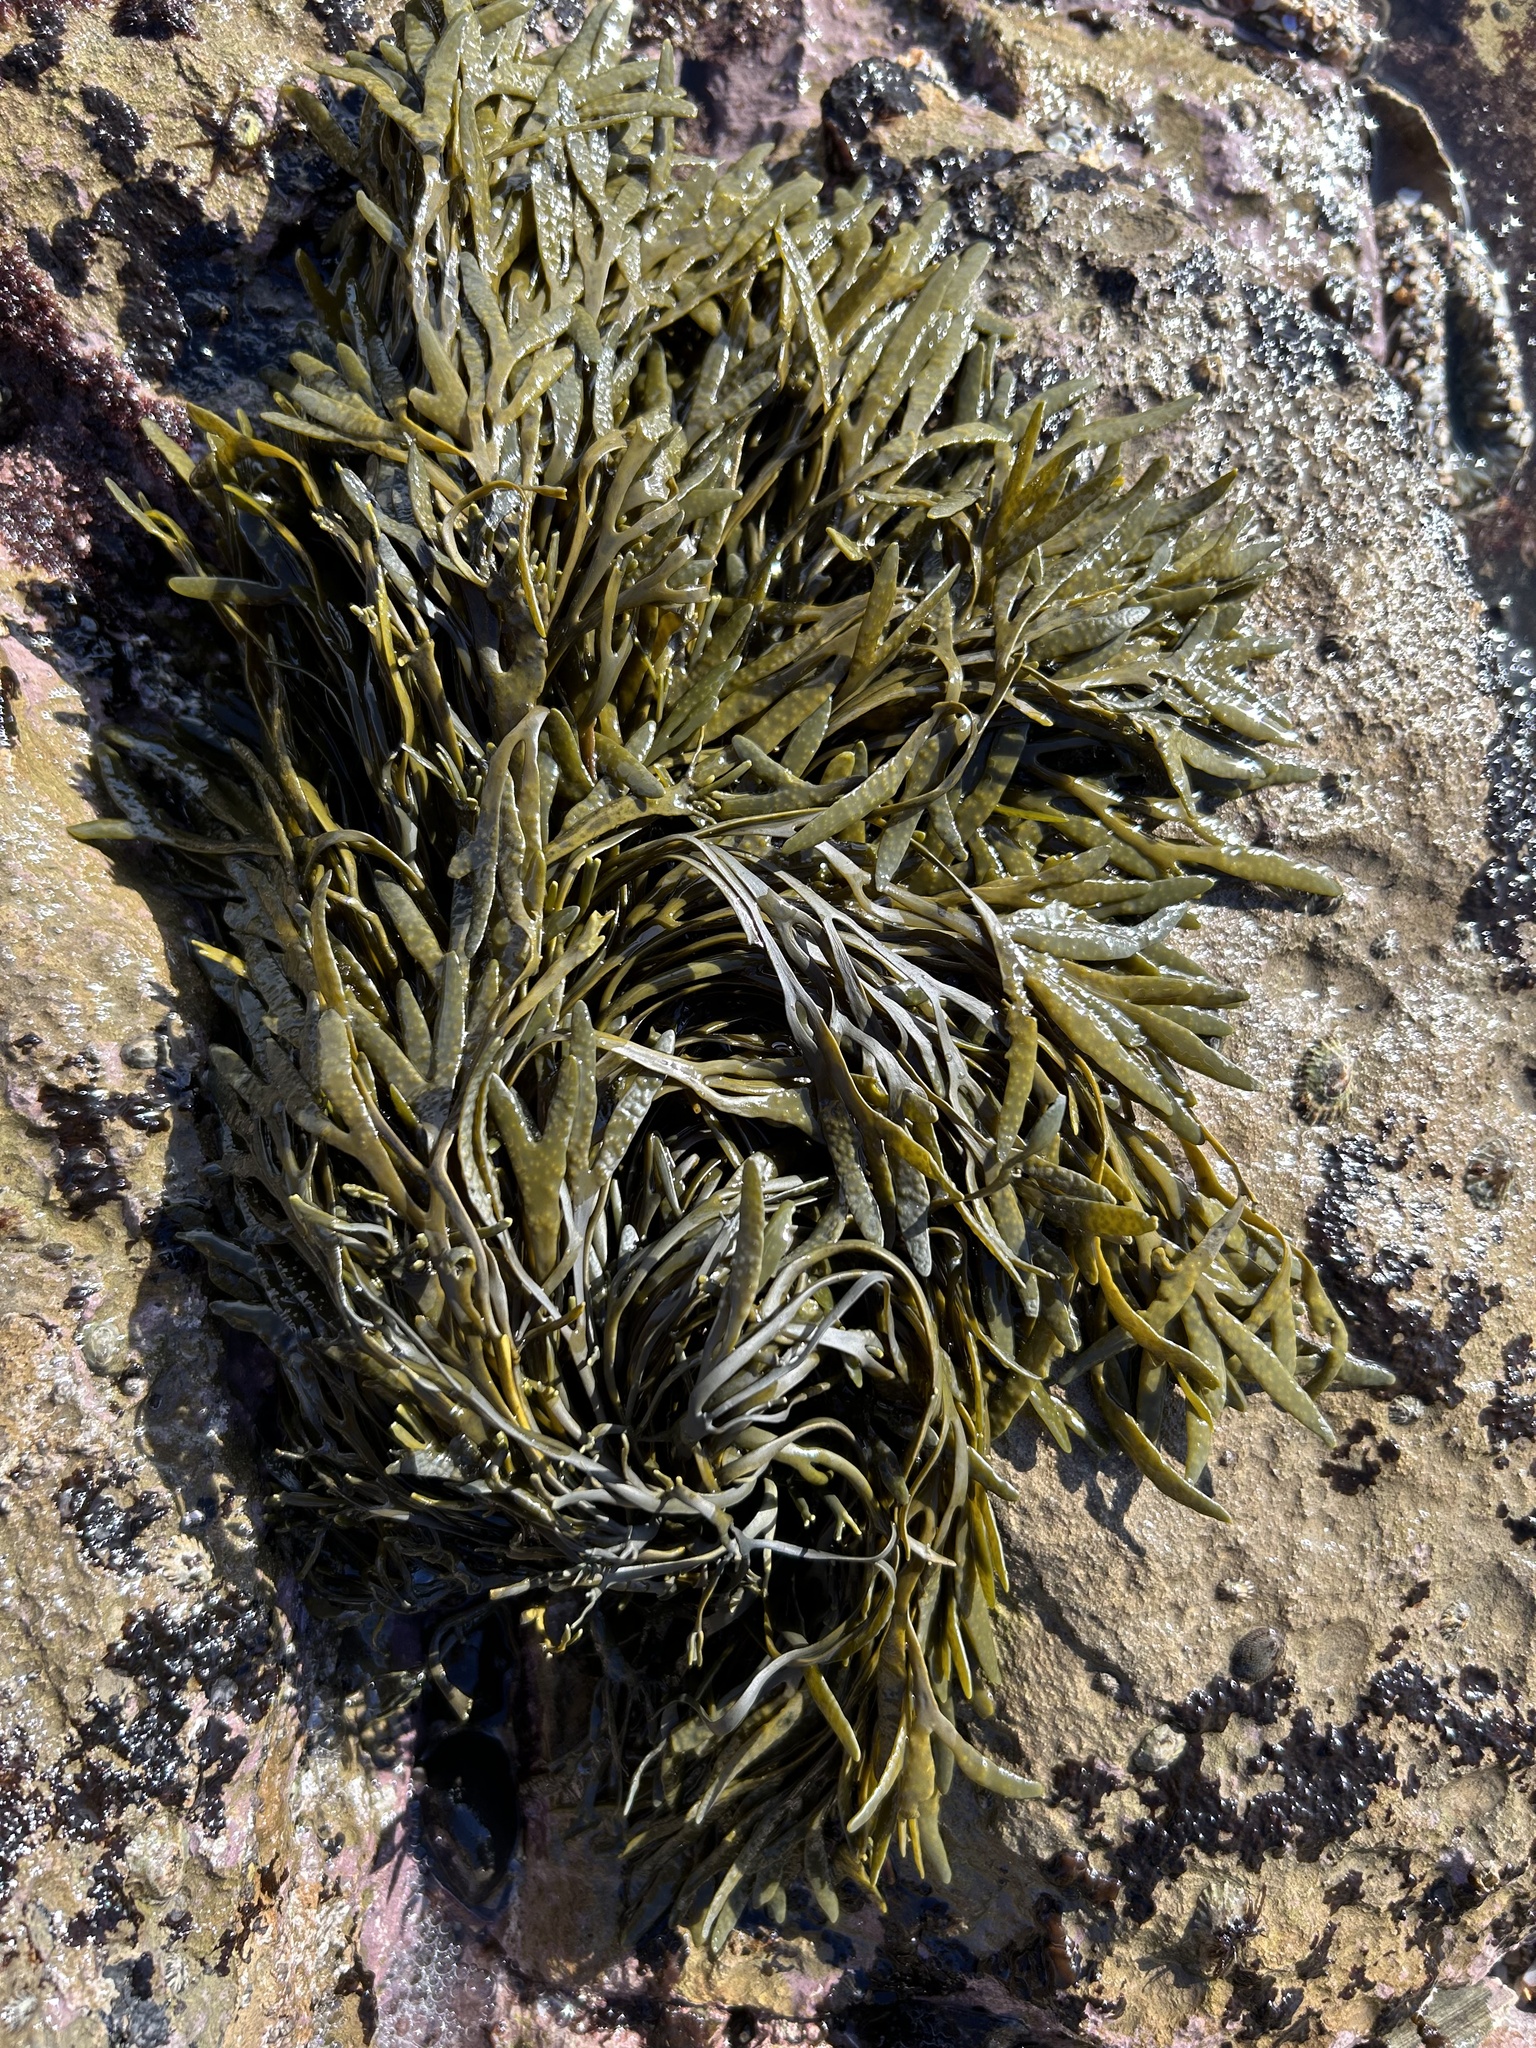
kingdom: Chromista
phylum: Ochrophyta
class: Phaeophyceae
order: Fucales
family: Fucaceae
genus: Silvetia
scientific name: Silvetia
